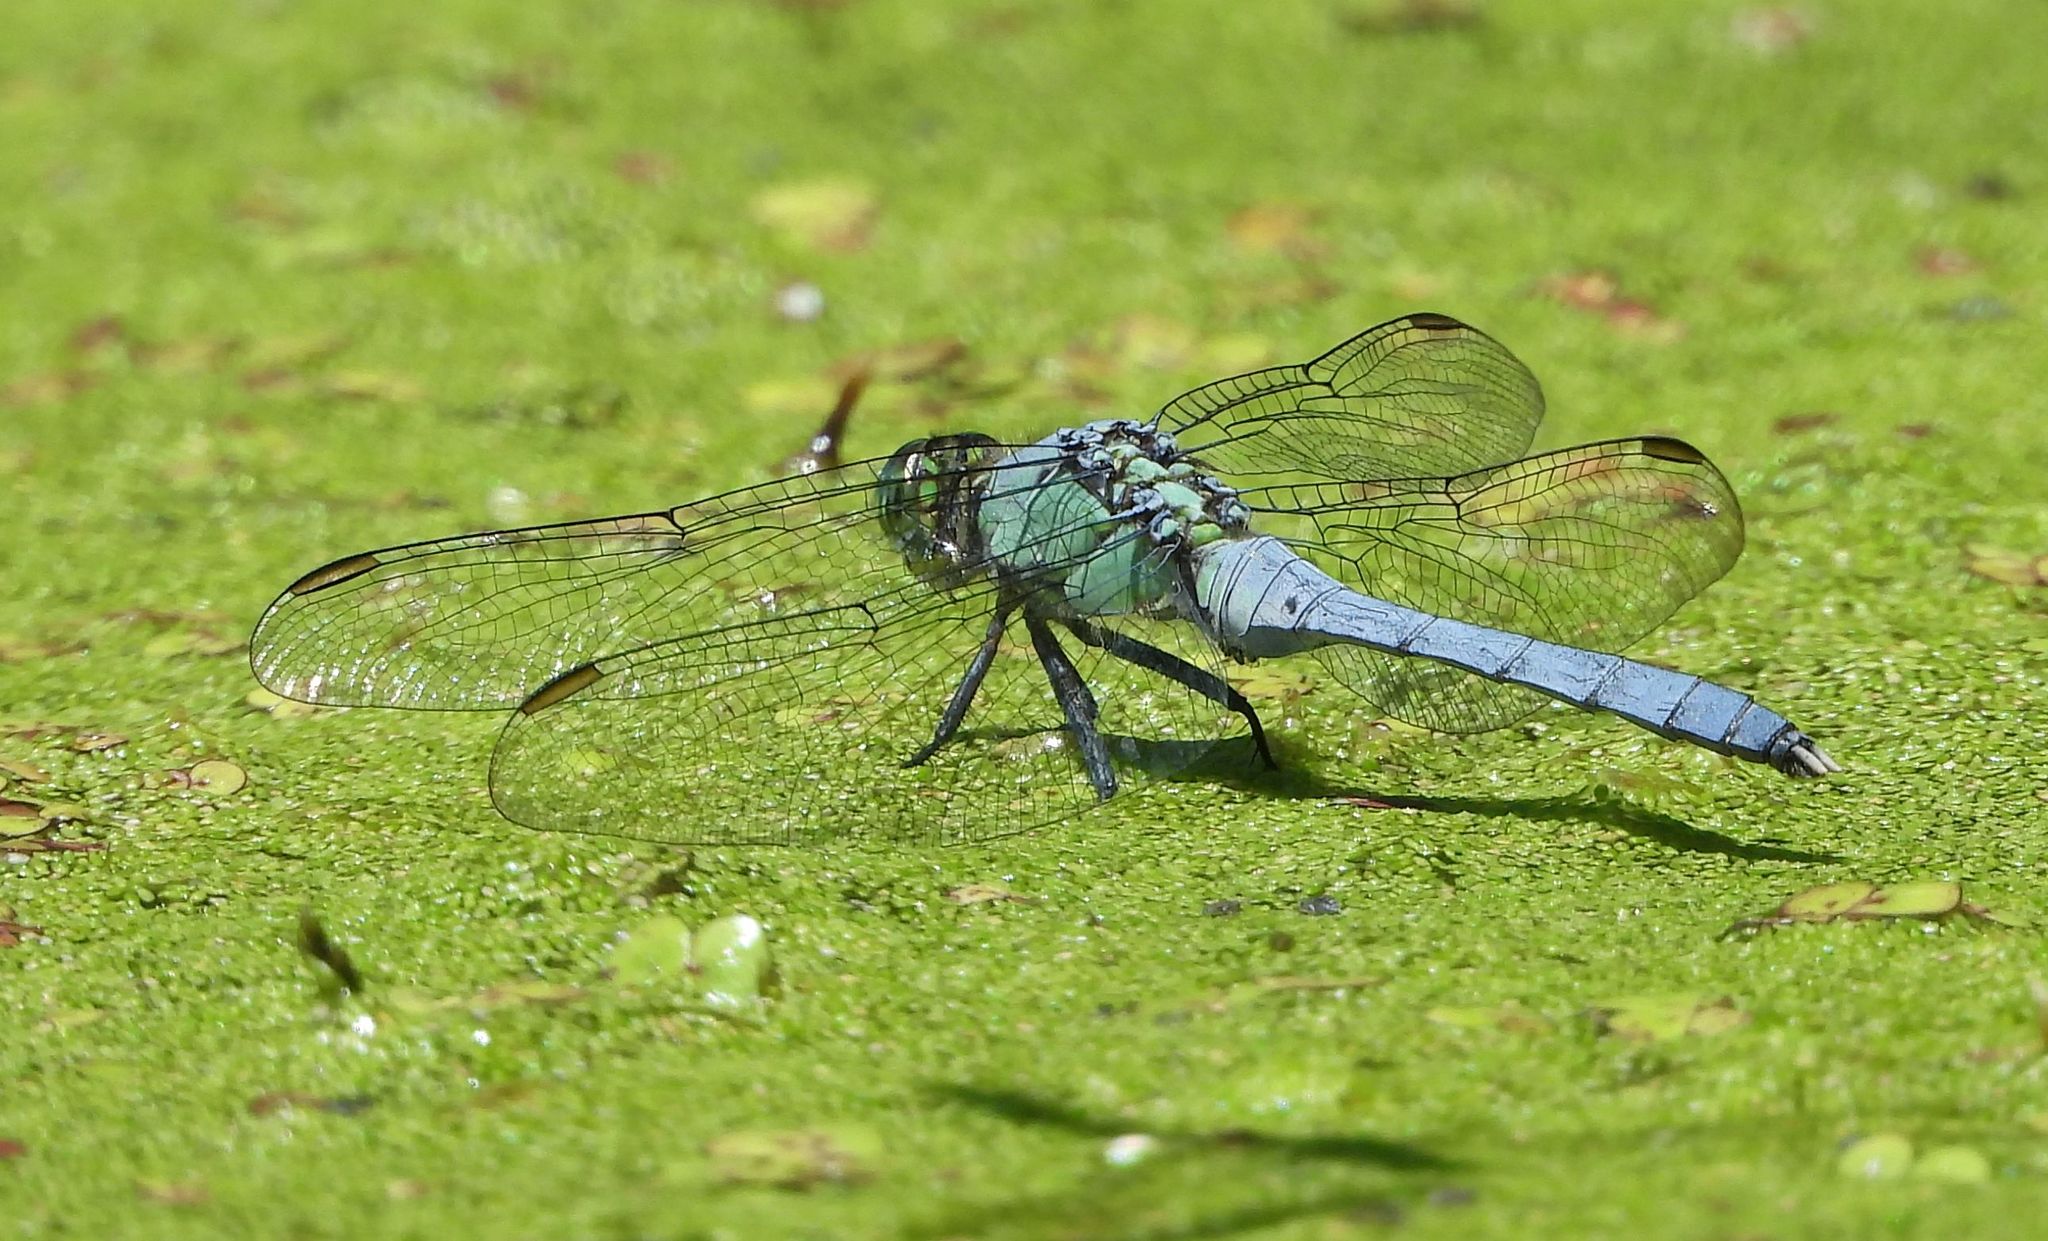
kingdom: Animalia
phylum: Arthropoda
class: Insecta
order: Odonata
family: Libellulidae
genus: Erythemis
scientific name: Erythemis simplicicollis
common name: Eastern pondhawk
